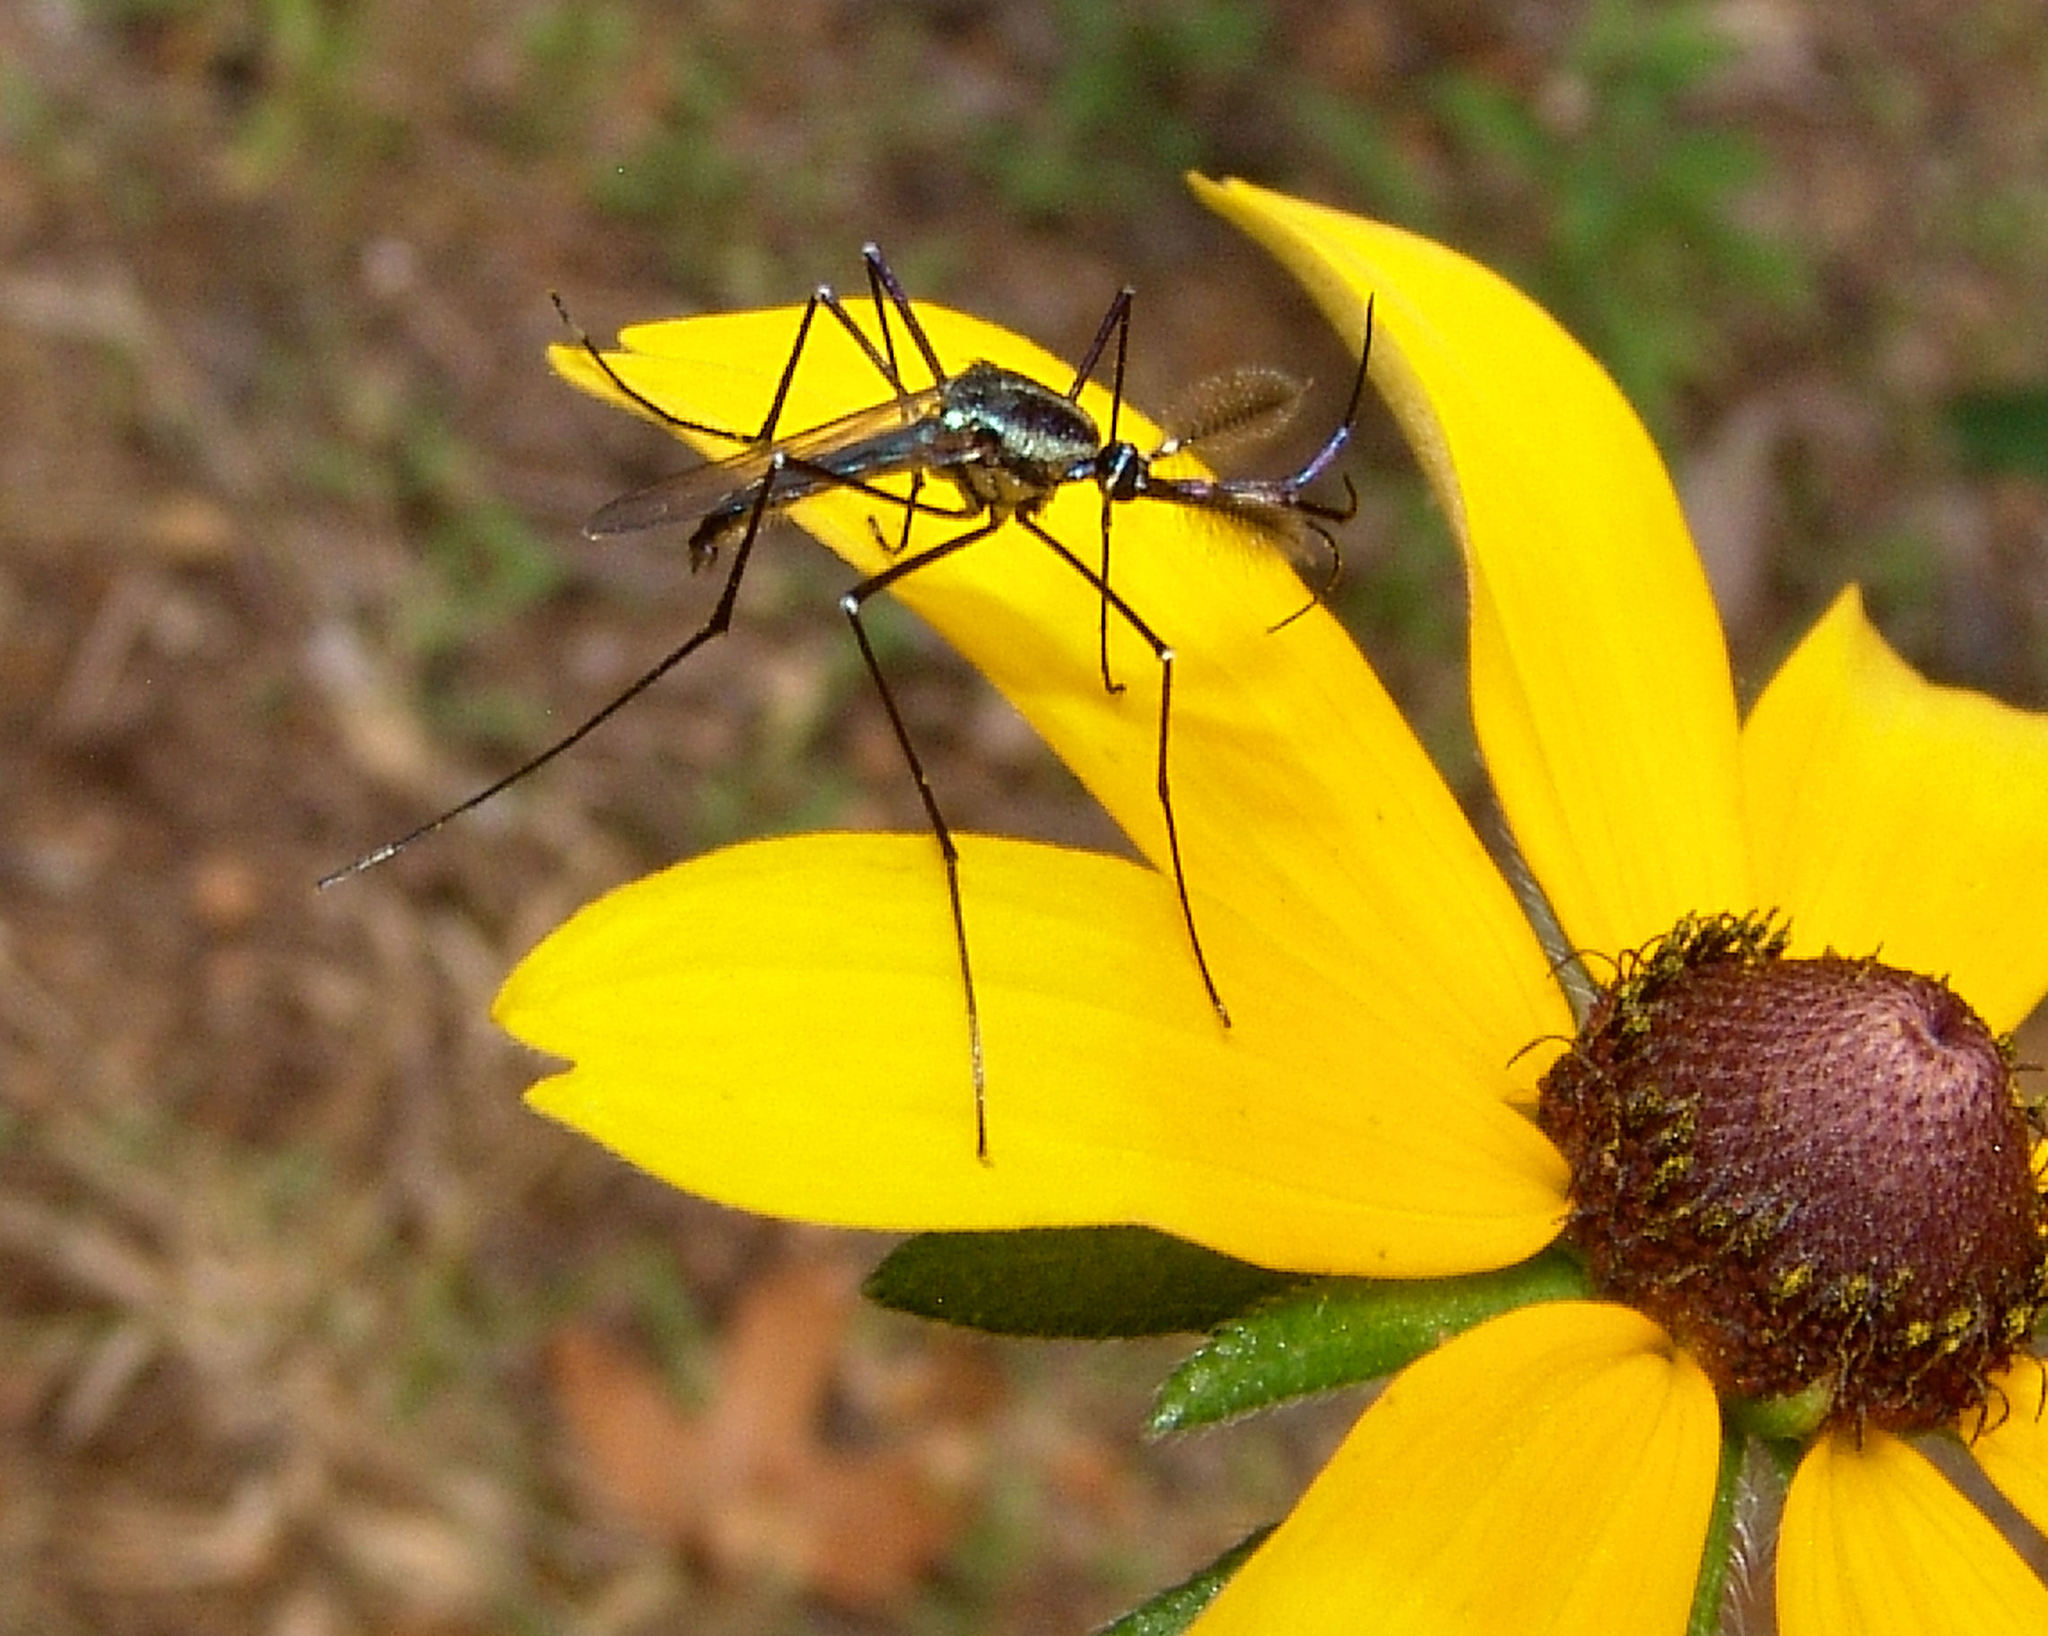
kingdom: Animalia
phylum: Arthropoda
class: Insecta
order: Diptera
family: Culicidae
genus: Toxorhynchites
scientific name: Toxorhynchites rutilus
